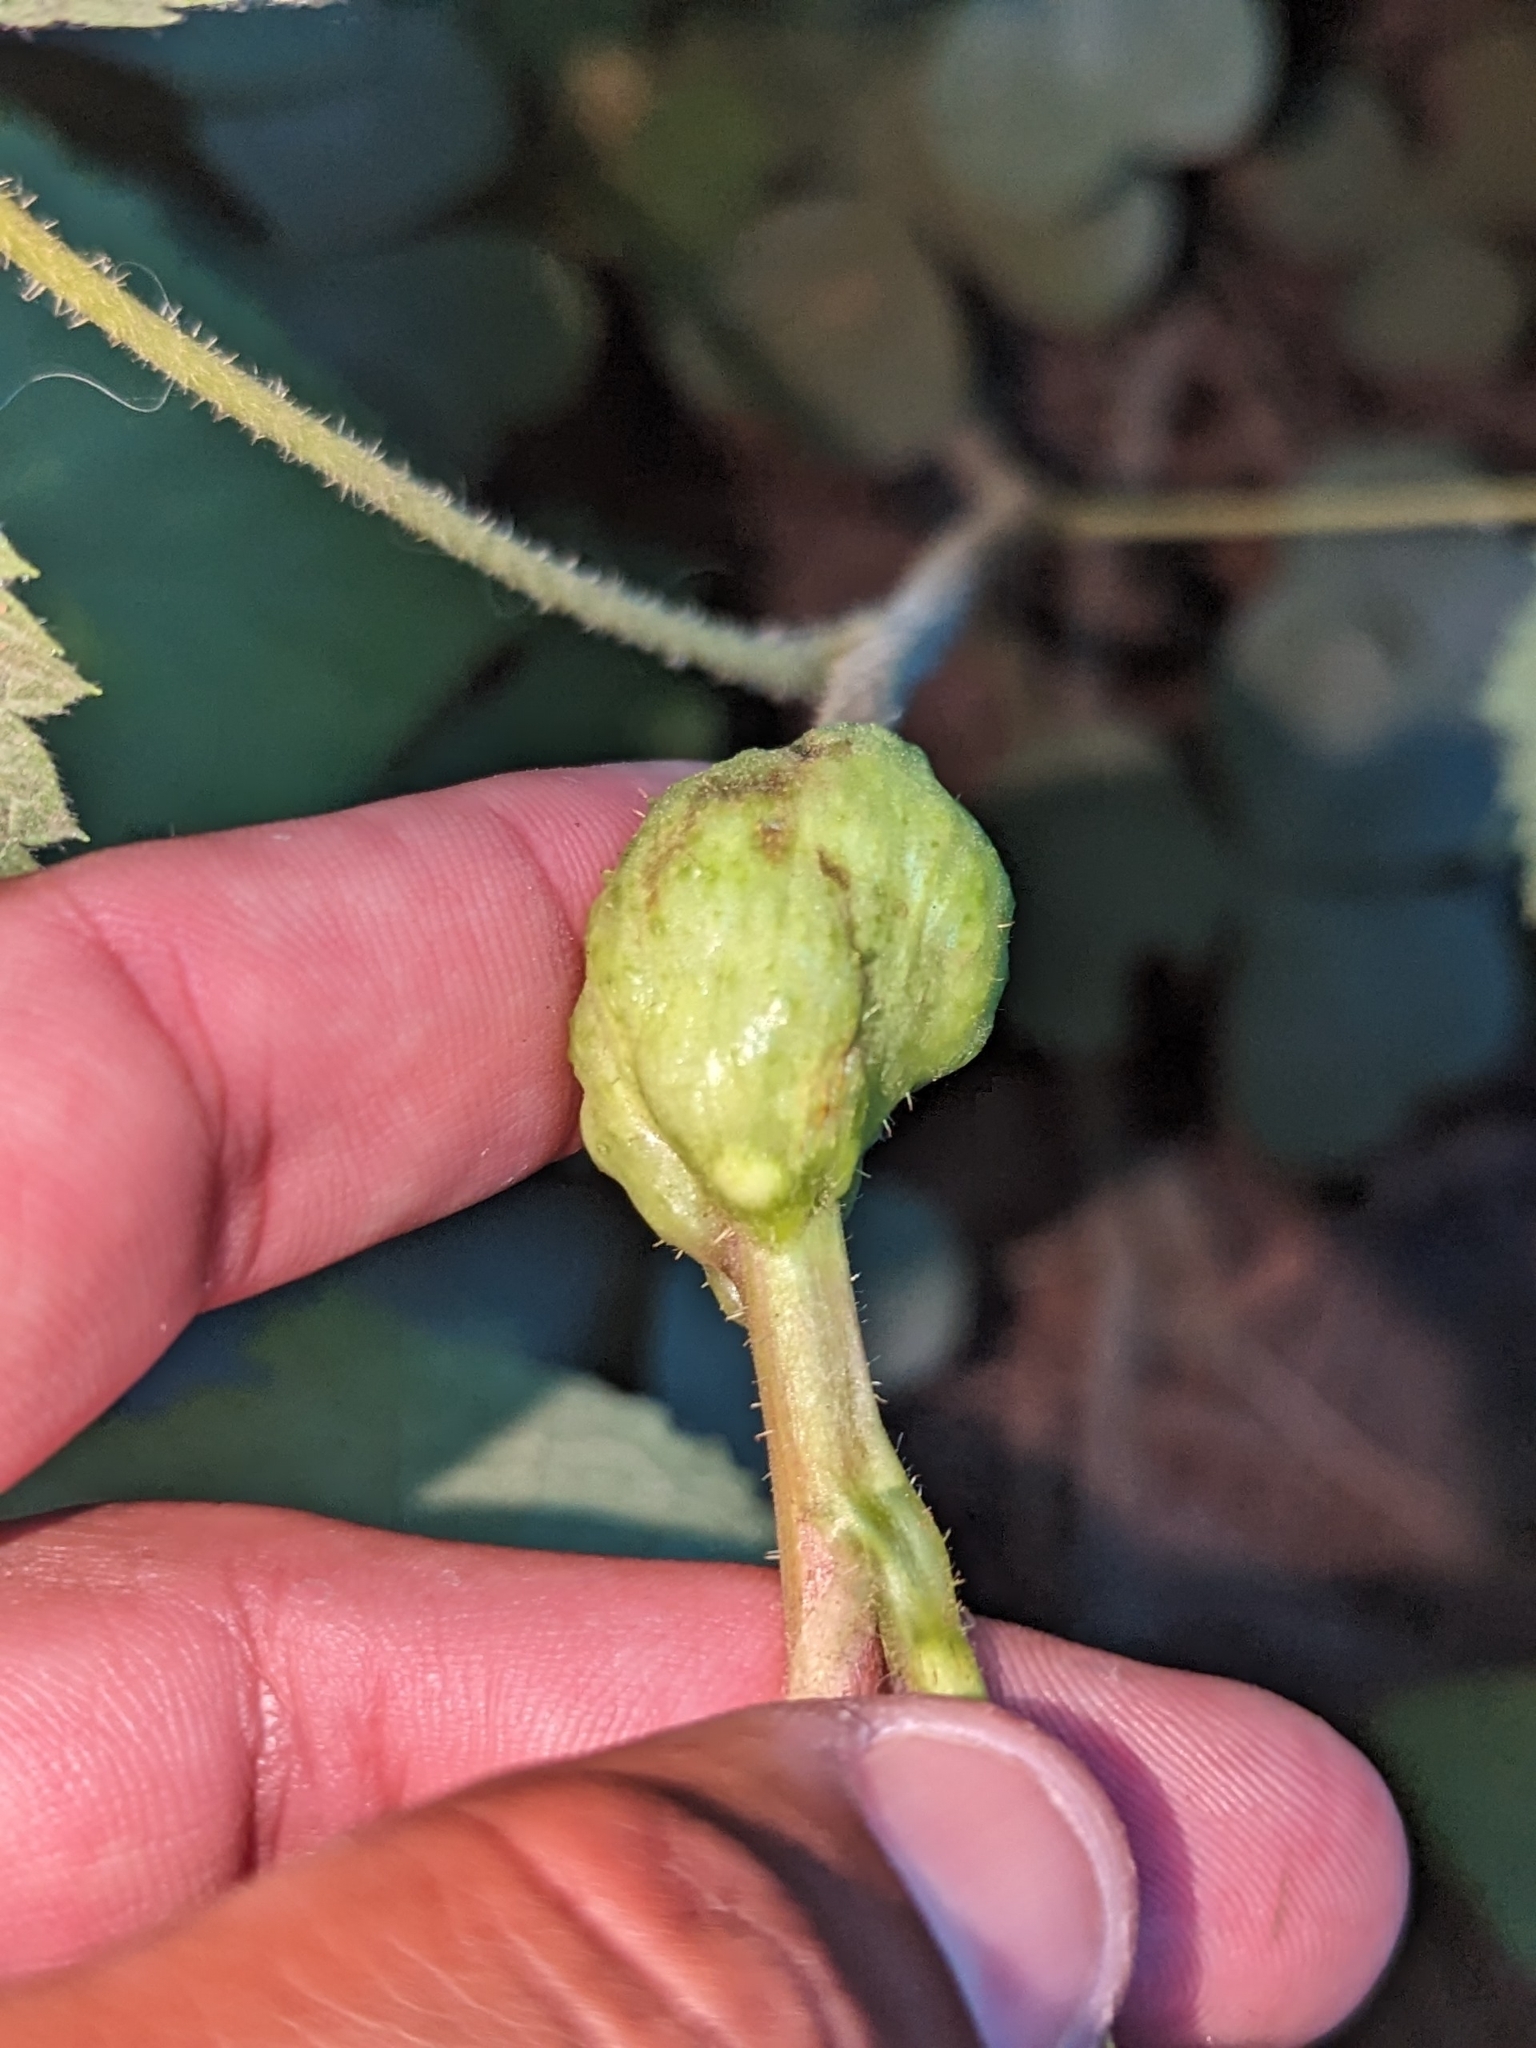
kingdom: Animalia
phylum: Arthropoda
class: Insecta
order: Hymenoptera
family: Cynipidae
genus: Diastrophus
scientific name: Diastrophus
